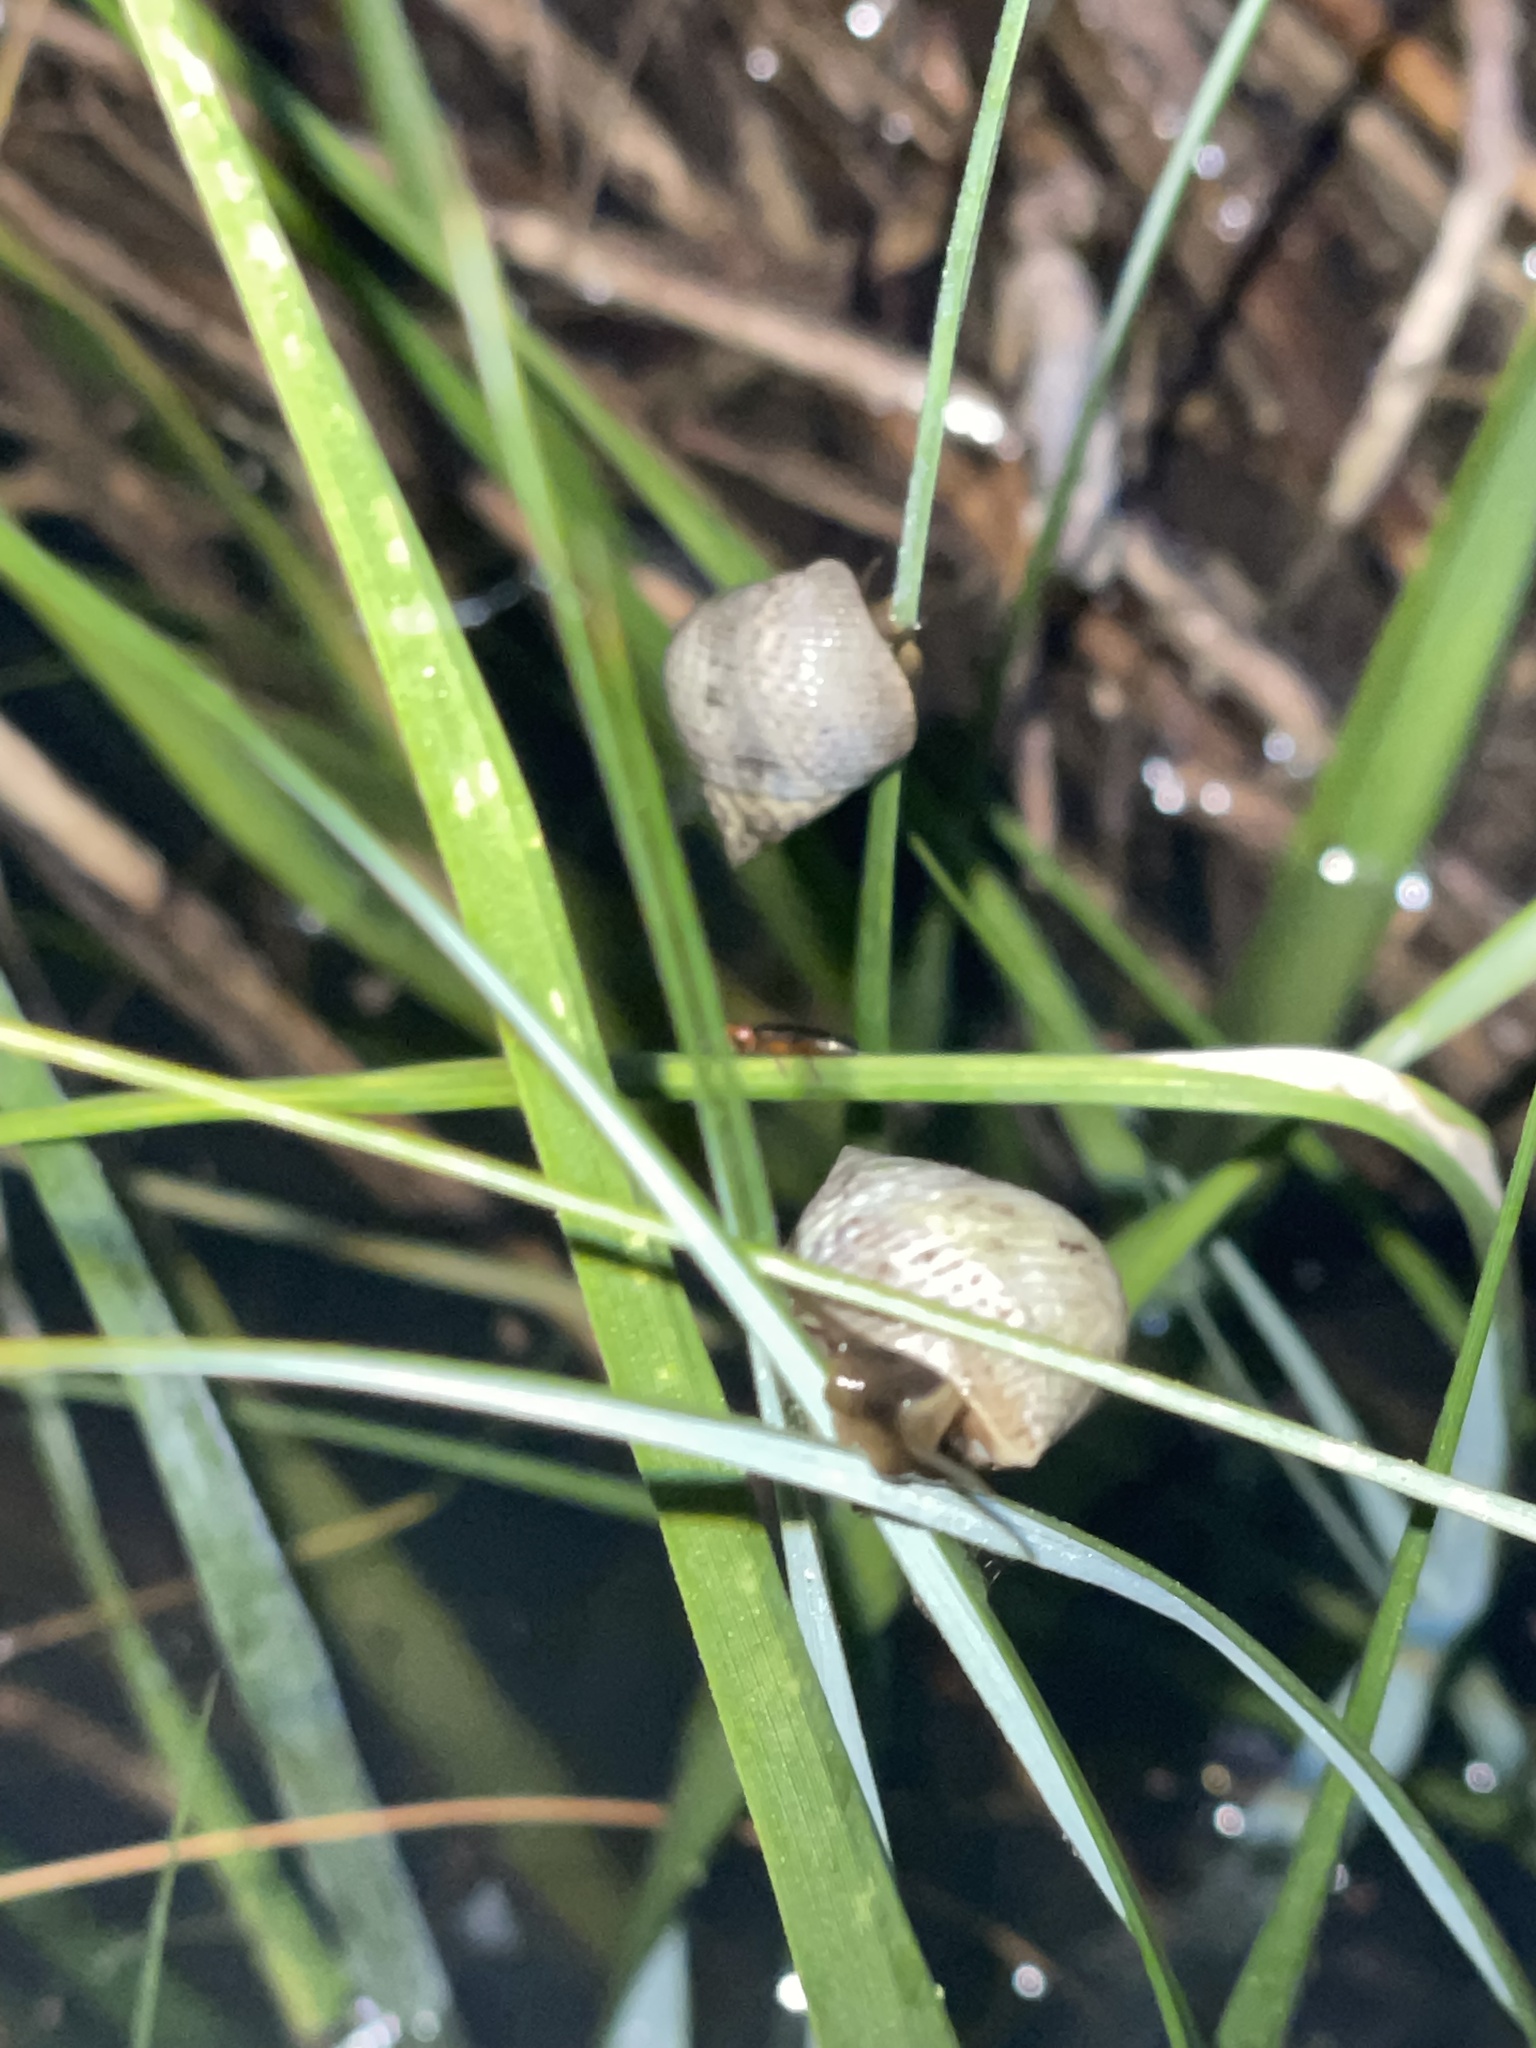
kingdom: Animalia
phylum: Mollusca
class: Gastropoda
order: Littorinimorpha
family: Littorinidae
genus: Littoraria
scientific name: Littoraria irrorata
